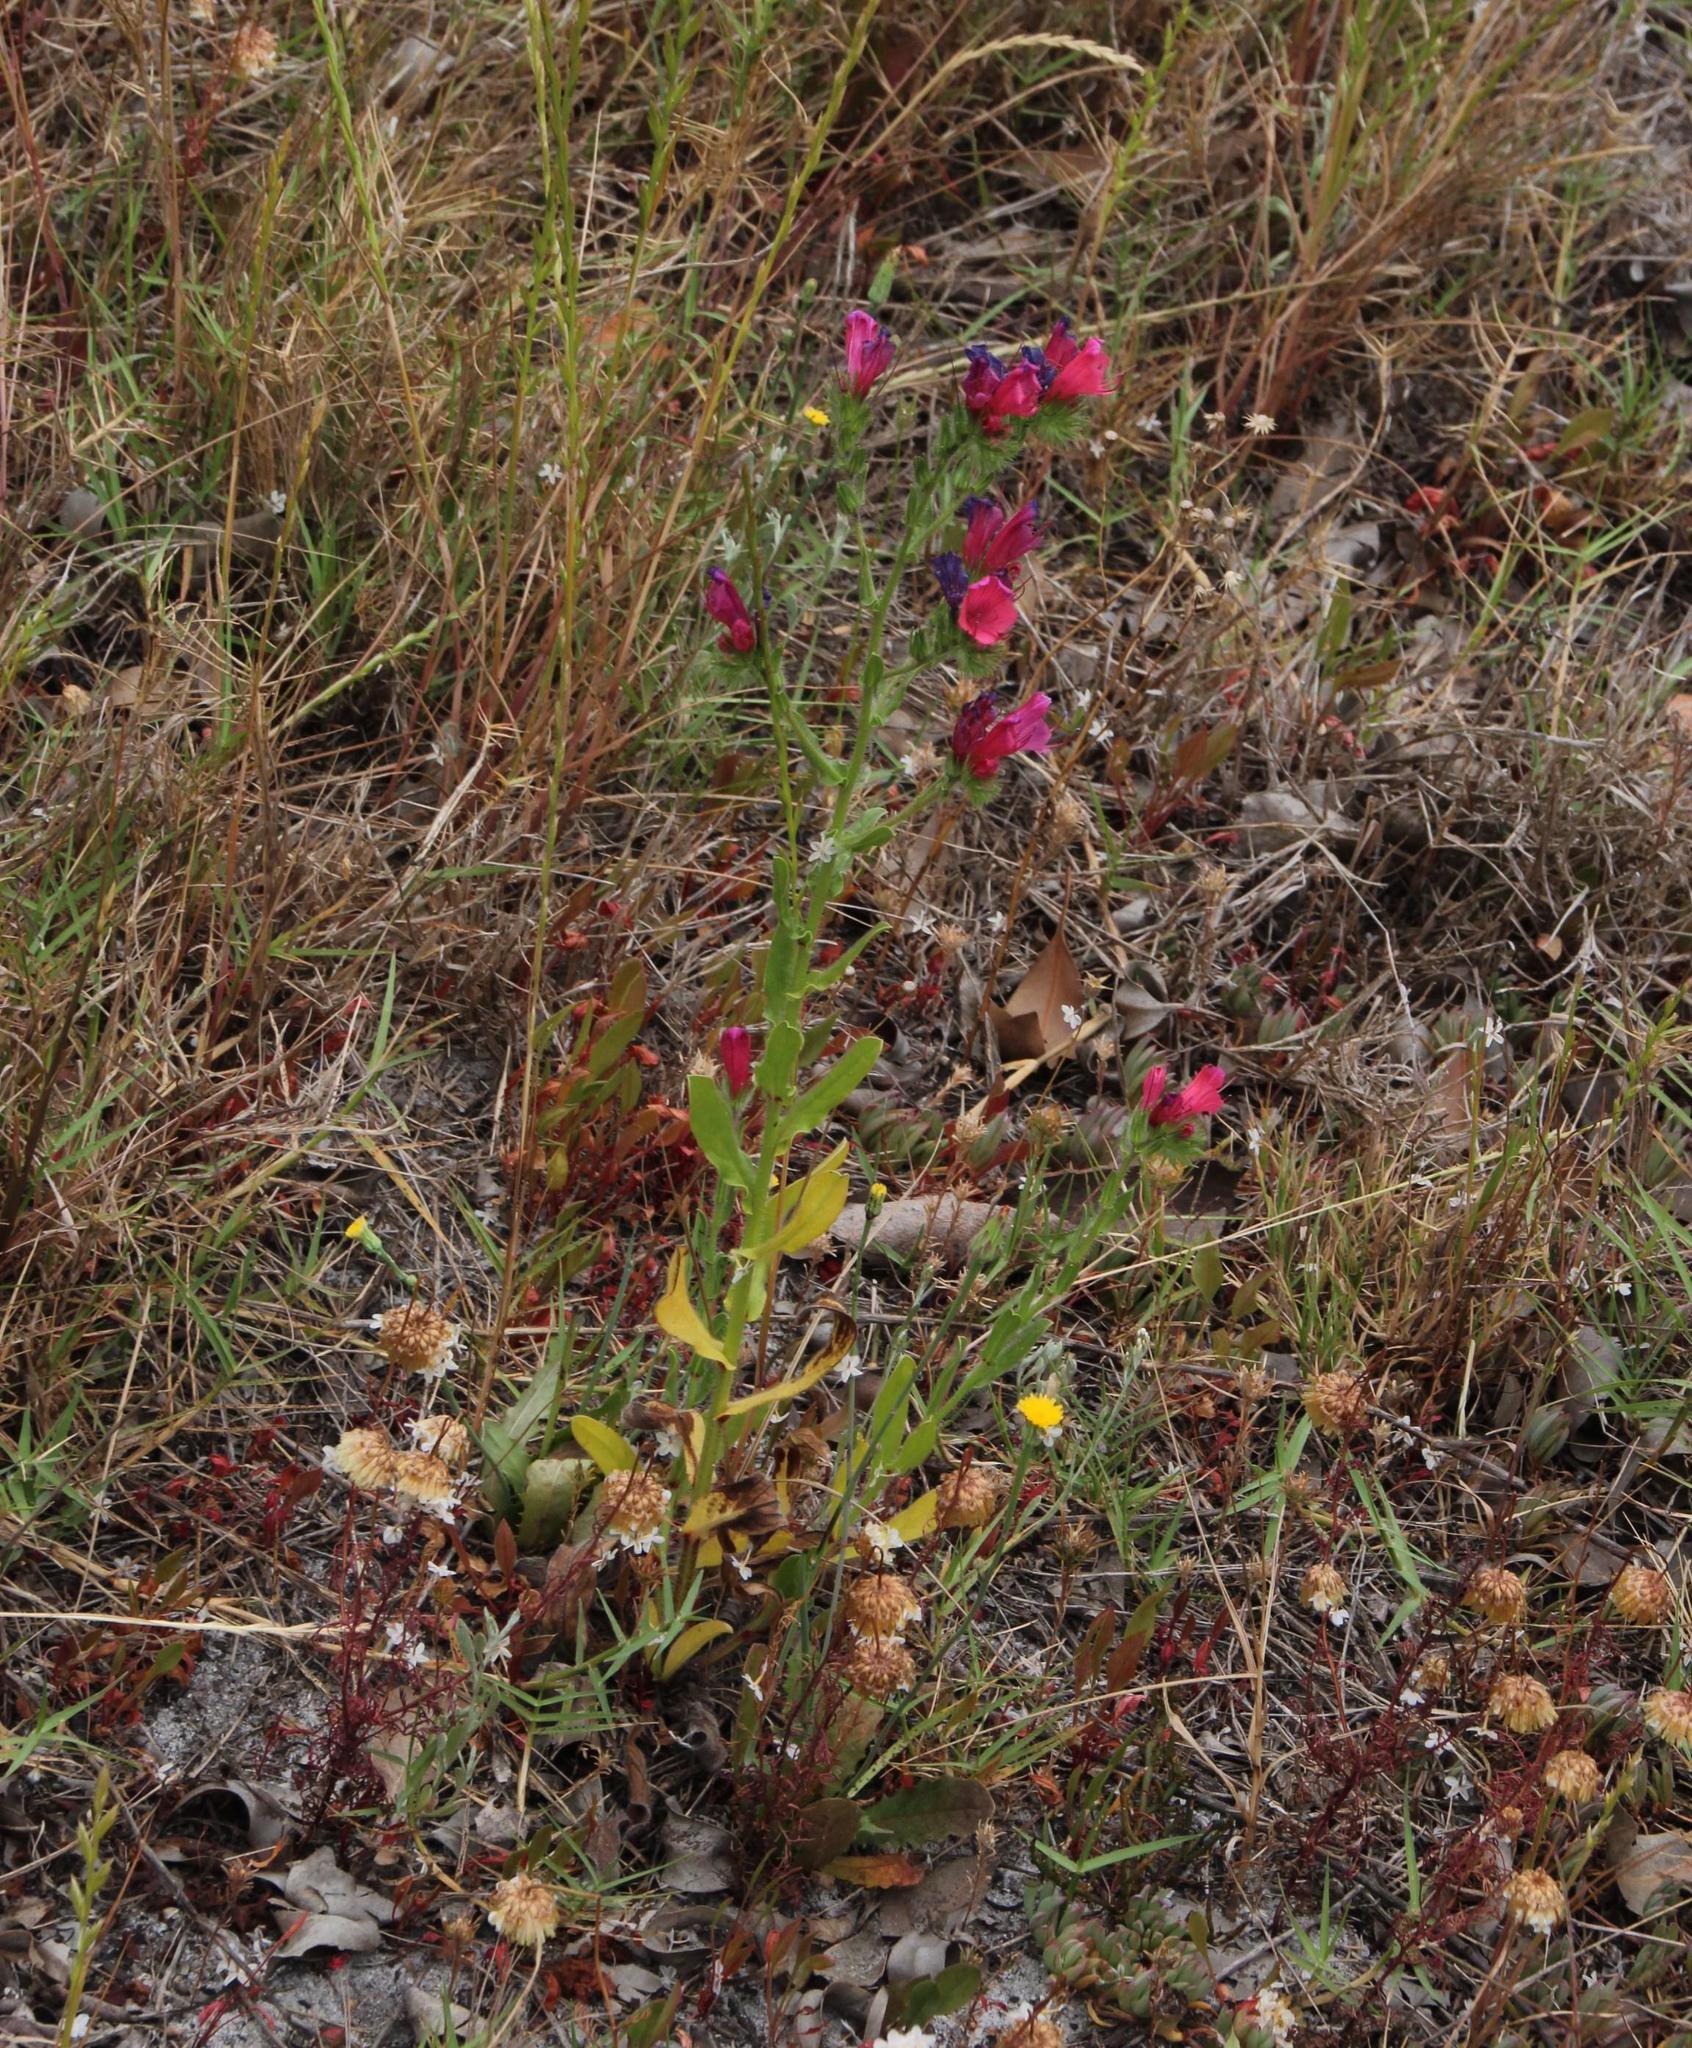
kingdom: Plantae
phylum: Tracheophyta
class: Magnoliopsida
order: Boraginales
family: Boraginaceae
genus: Echium
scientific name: Echium plantagineum
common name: Purple viper's-bugloss
